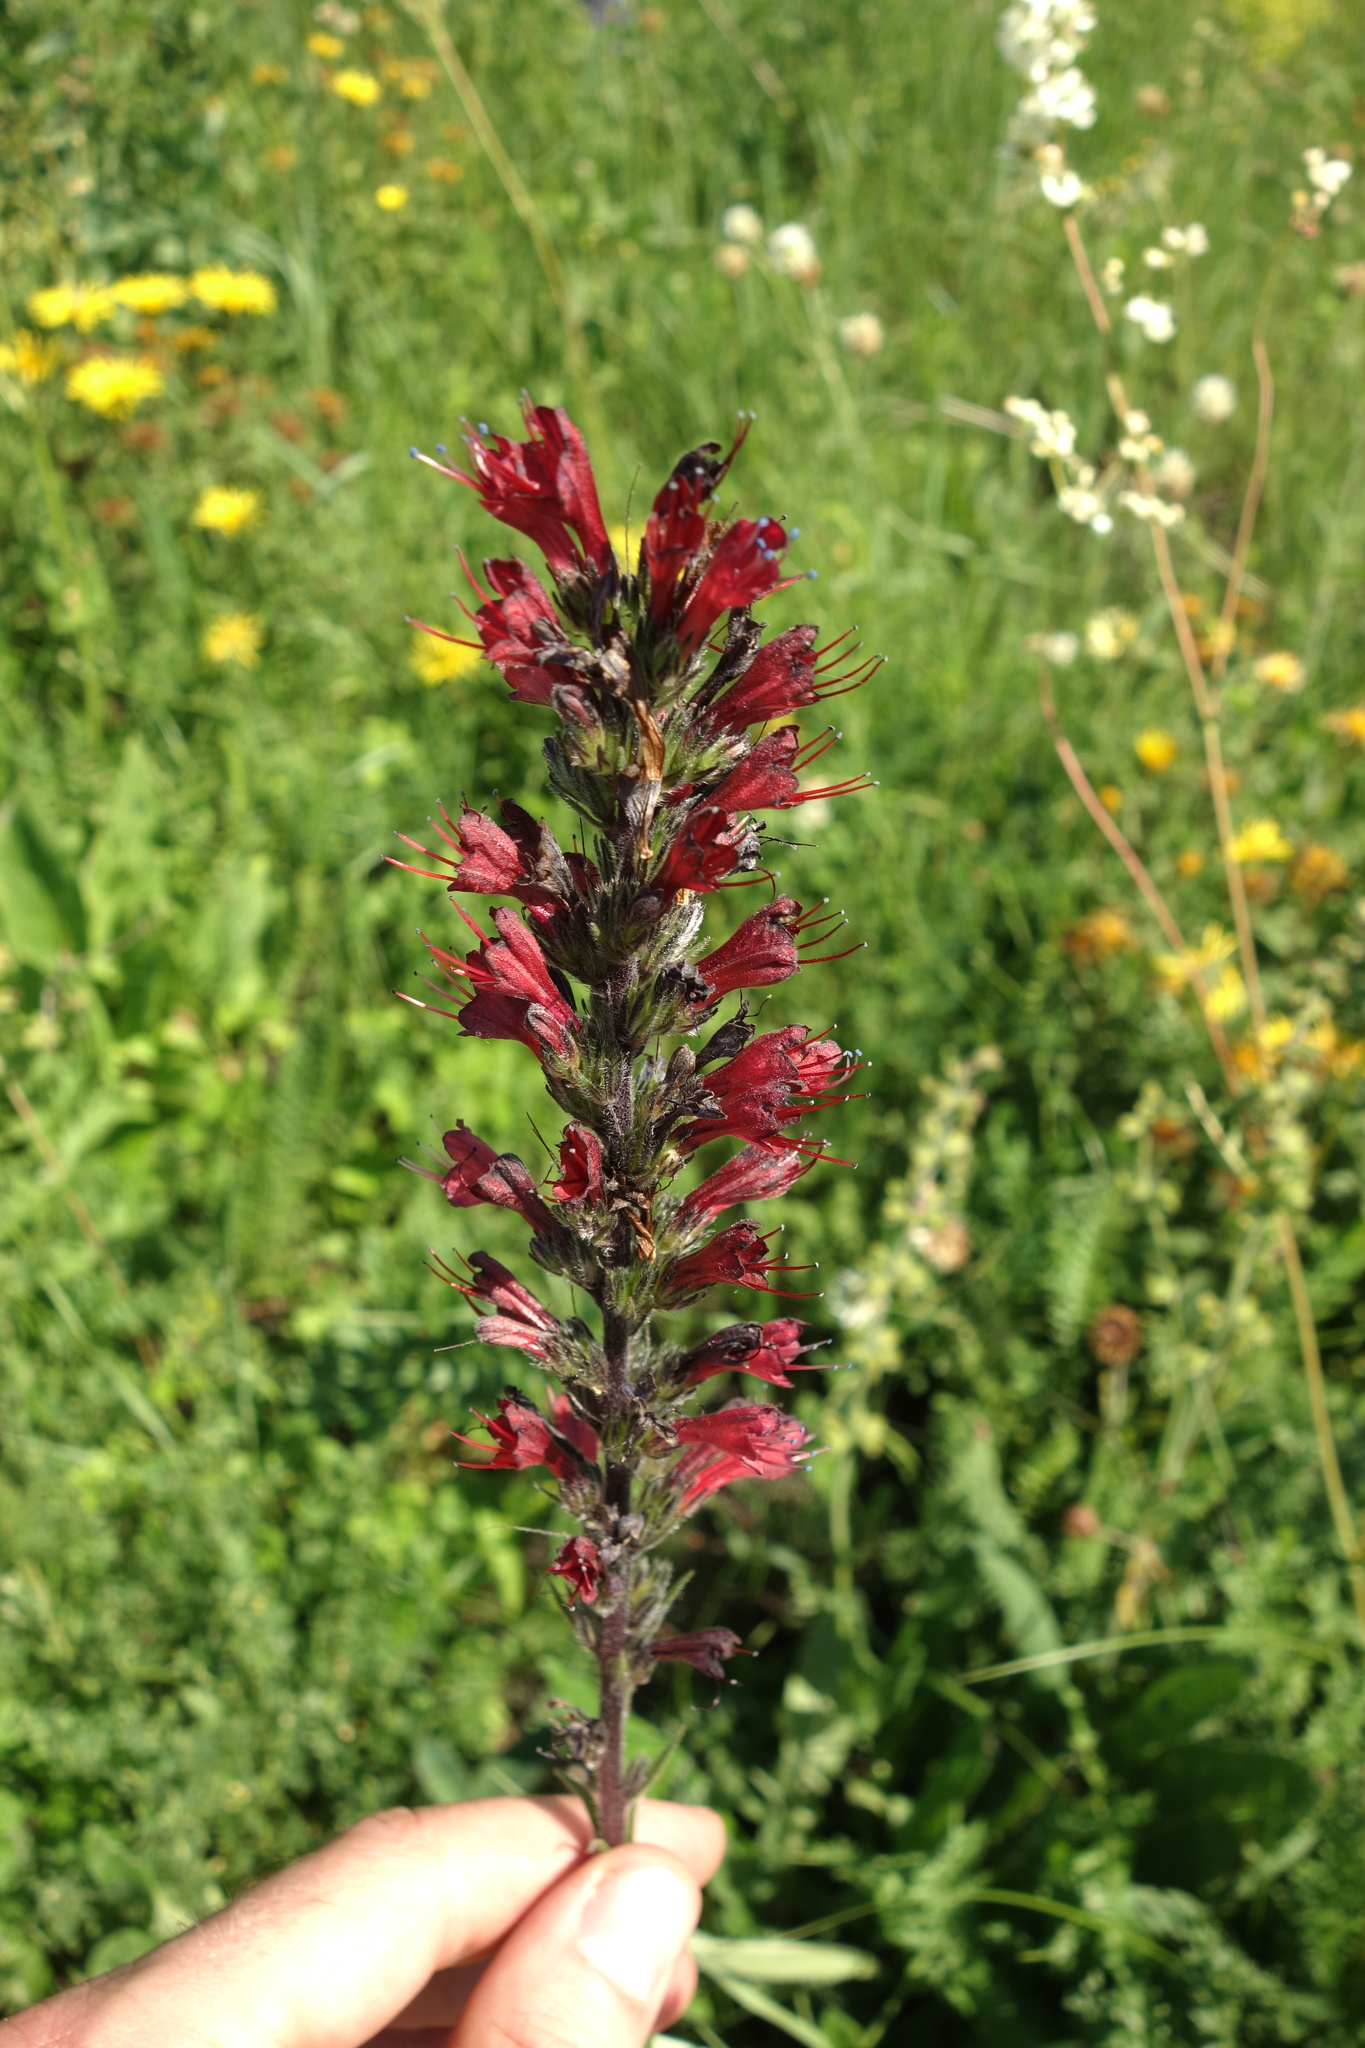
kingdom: Plantae
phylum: Tracheophyta
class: Magnoliopsida
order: Boraginales
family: Boraginaceae
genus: Pontechium
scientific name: Pontechium maculatum
